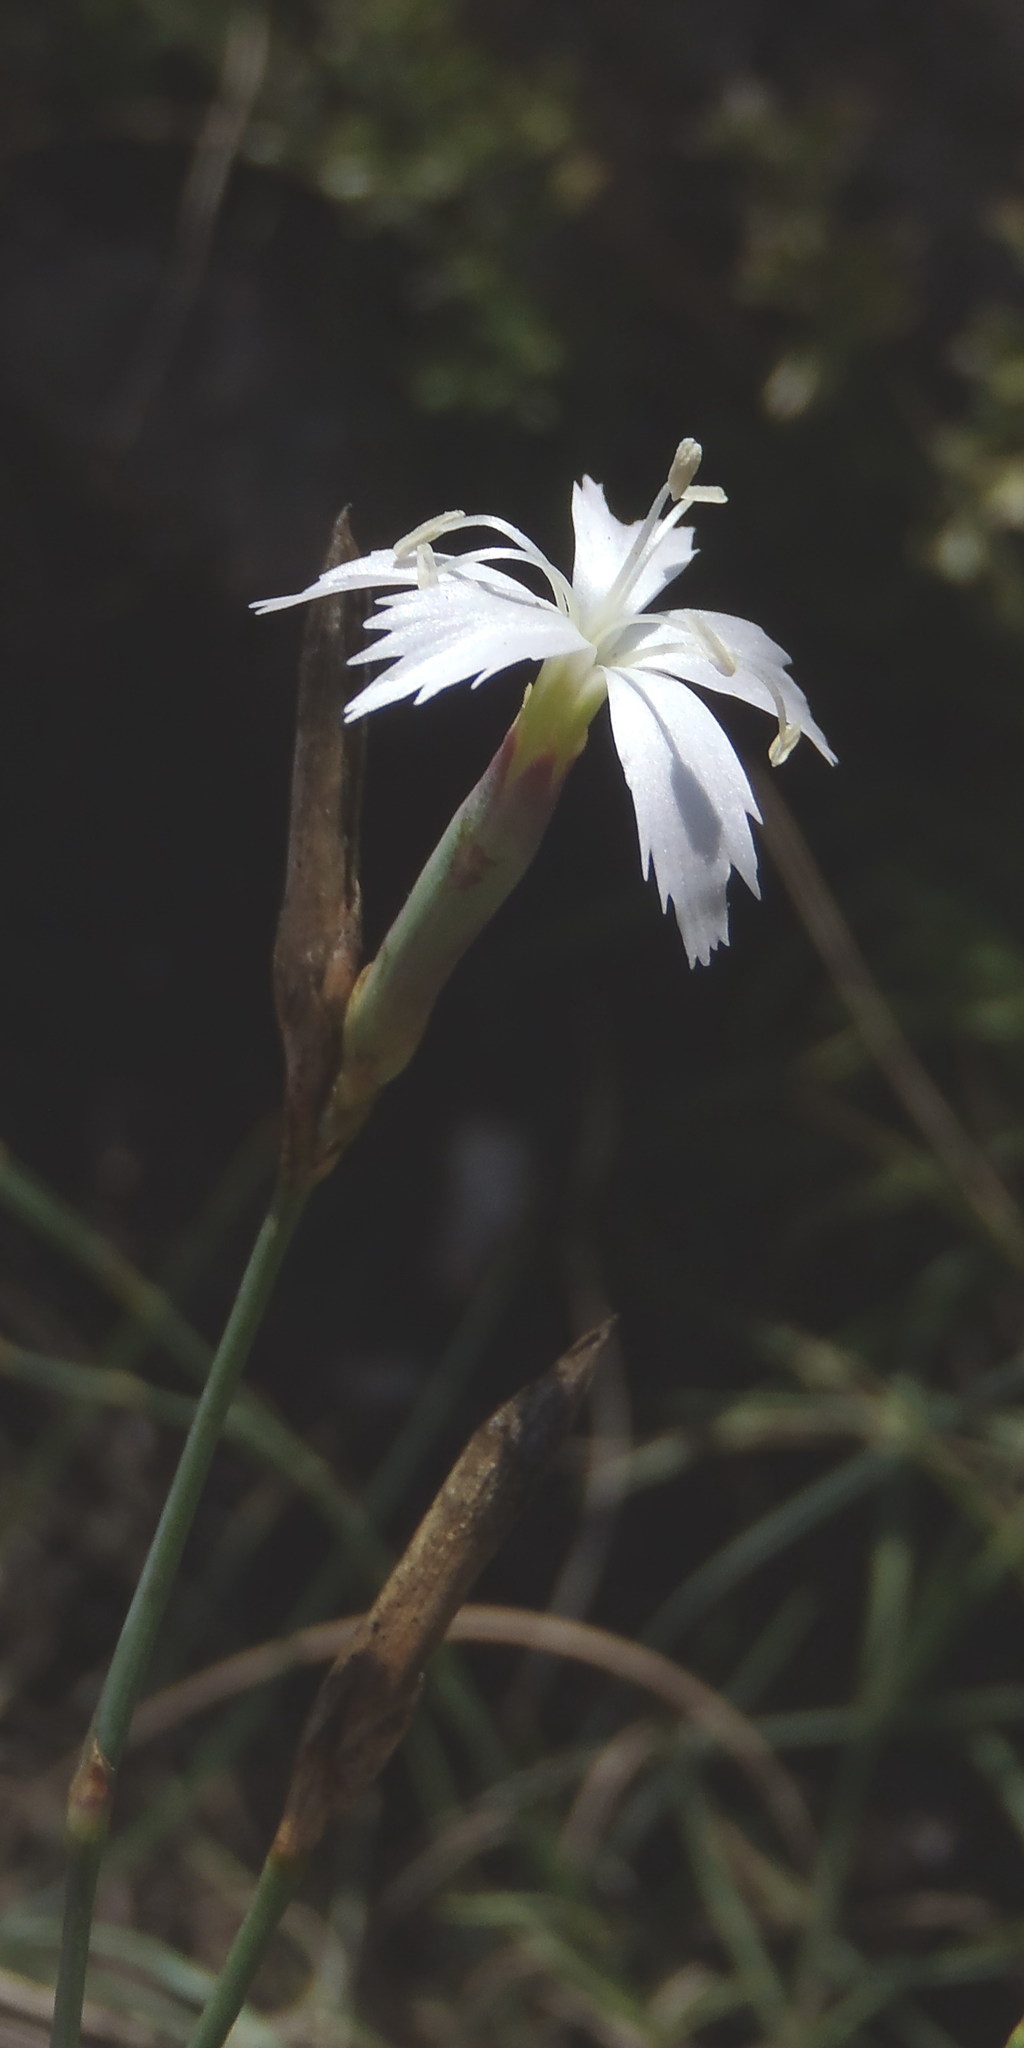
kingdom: Plantae
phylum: Tracheophyta
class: Magnoliopsida
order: Caryophyllales
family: Caryophyllaceae
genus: Dianthus
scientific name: Dianthus mooiensis
